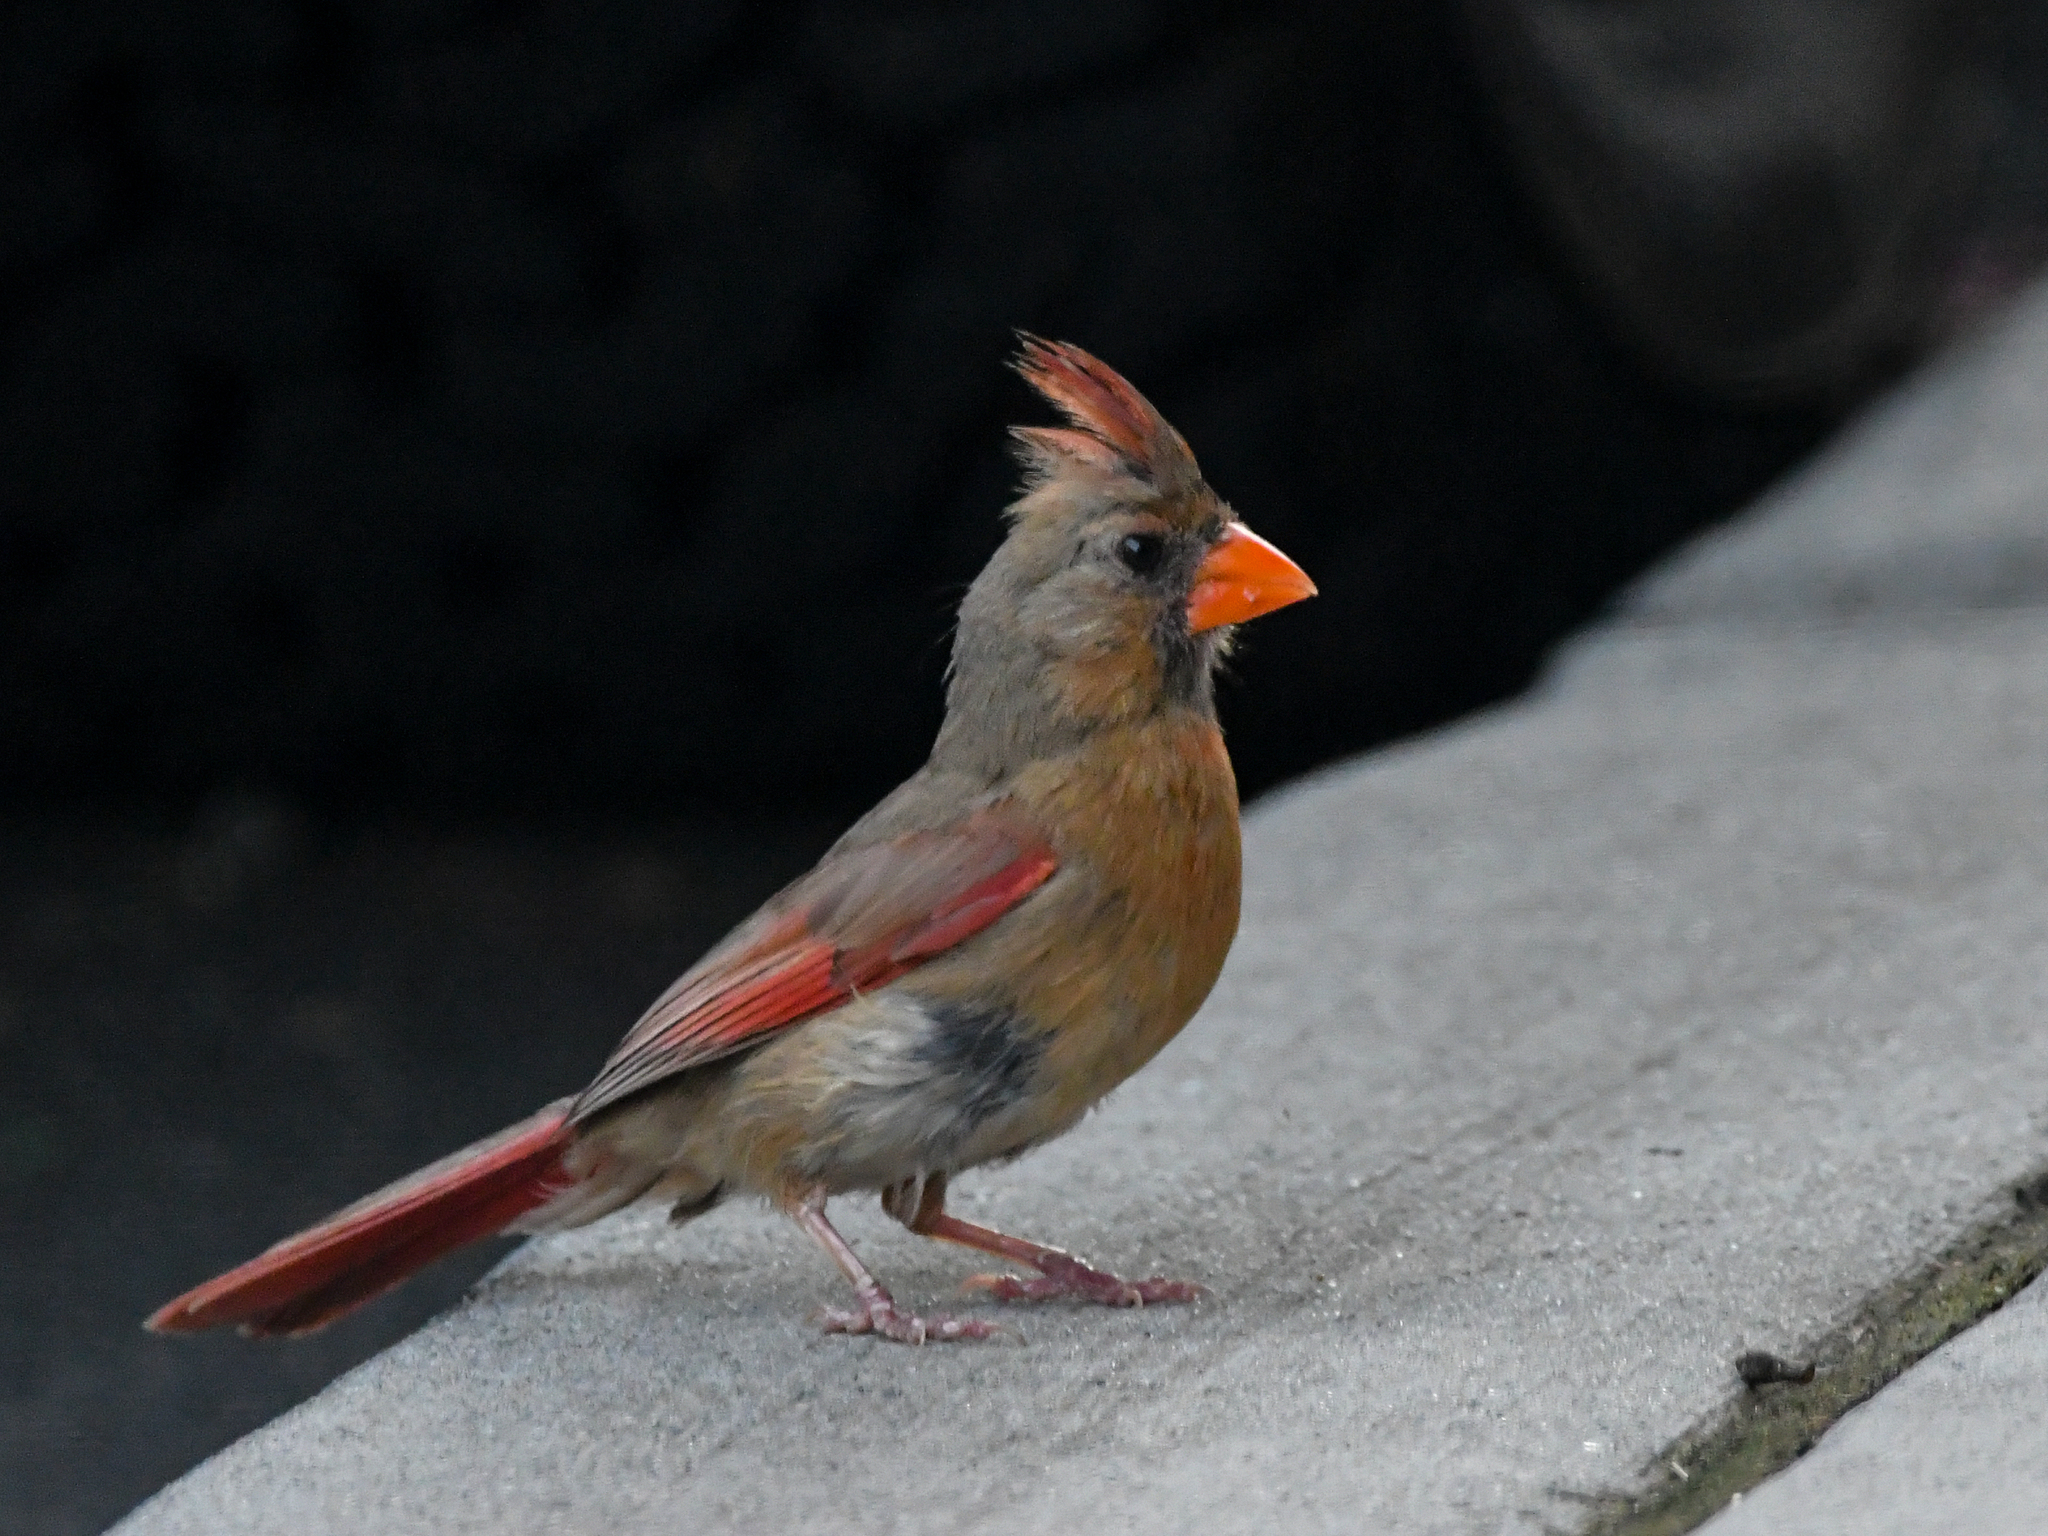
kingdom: Animalia
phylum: Chordata
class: Aves
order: Passeriformes
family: Cardinalidae
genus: Cardinalis
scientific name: Cardinalis cardinalis
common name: Northern cardinal
